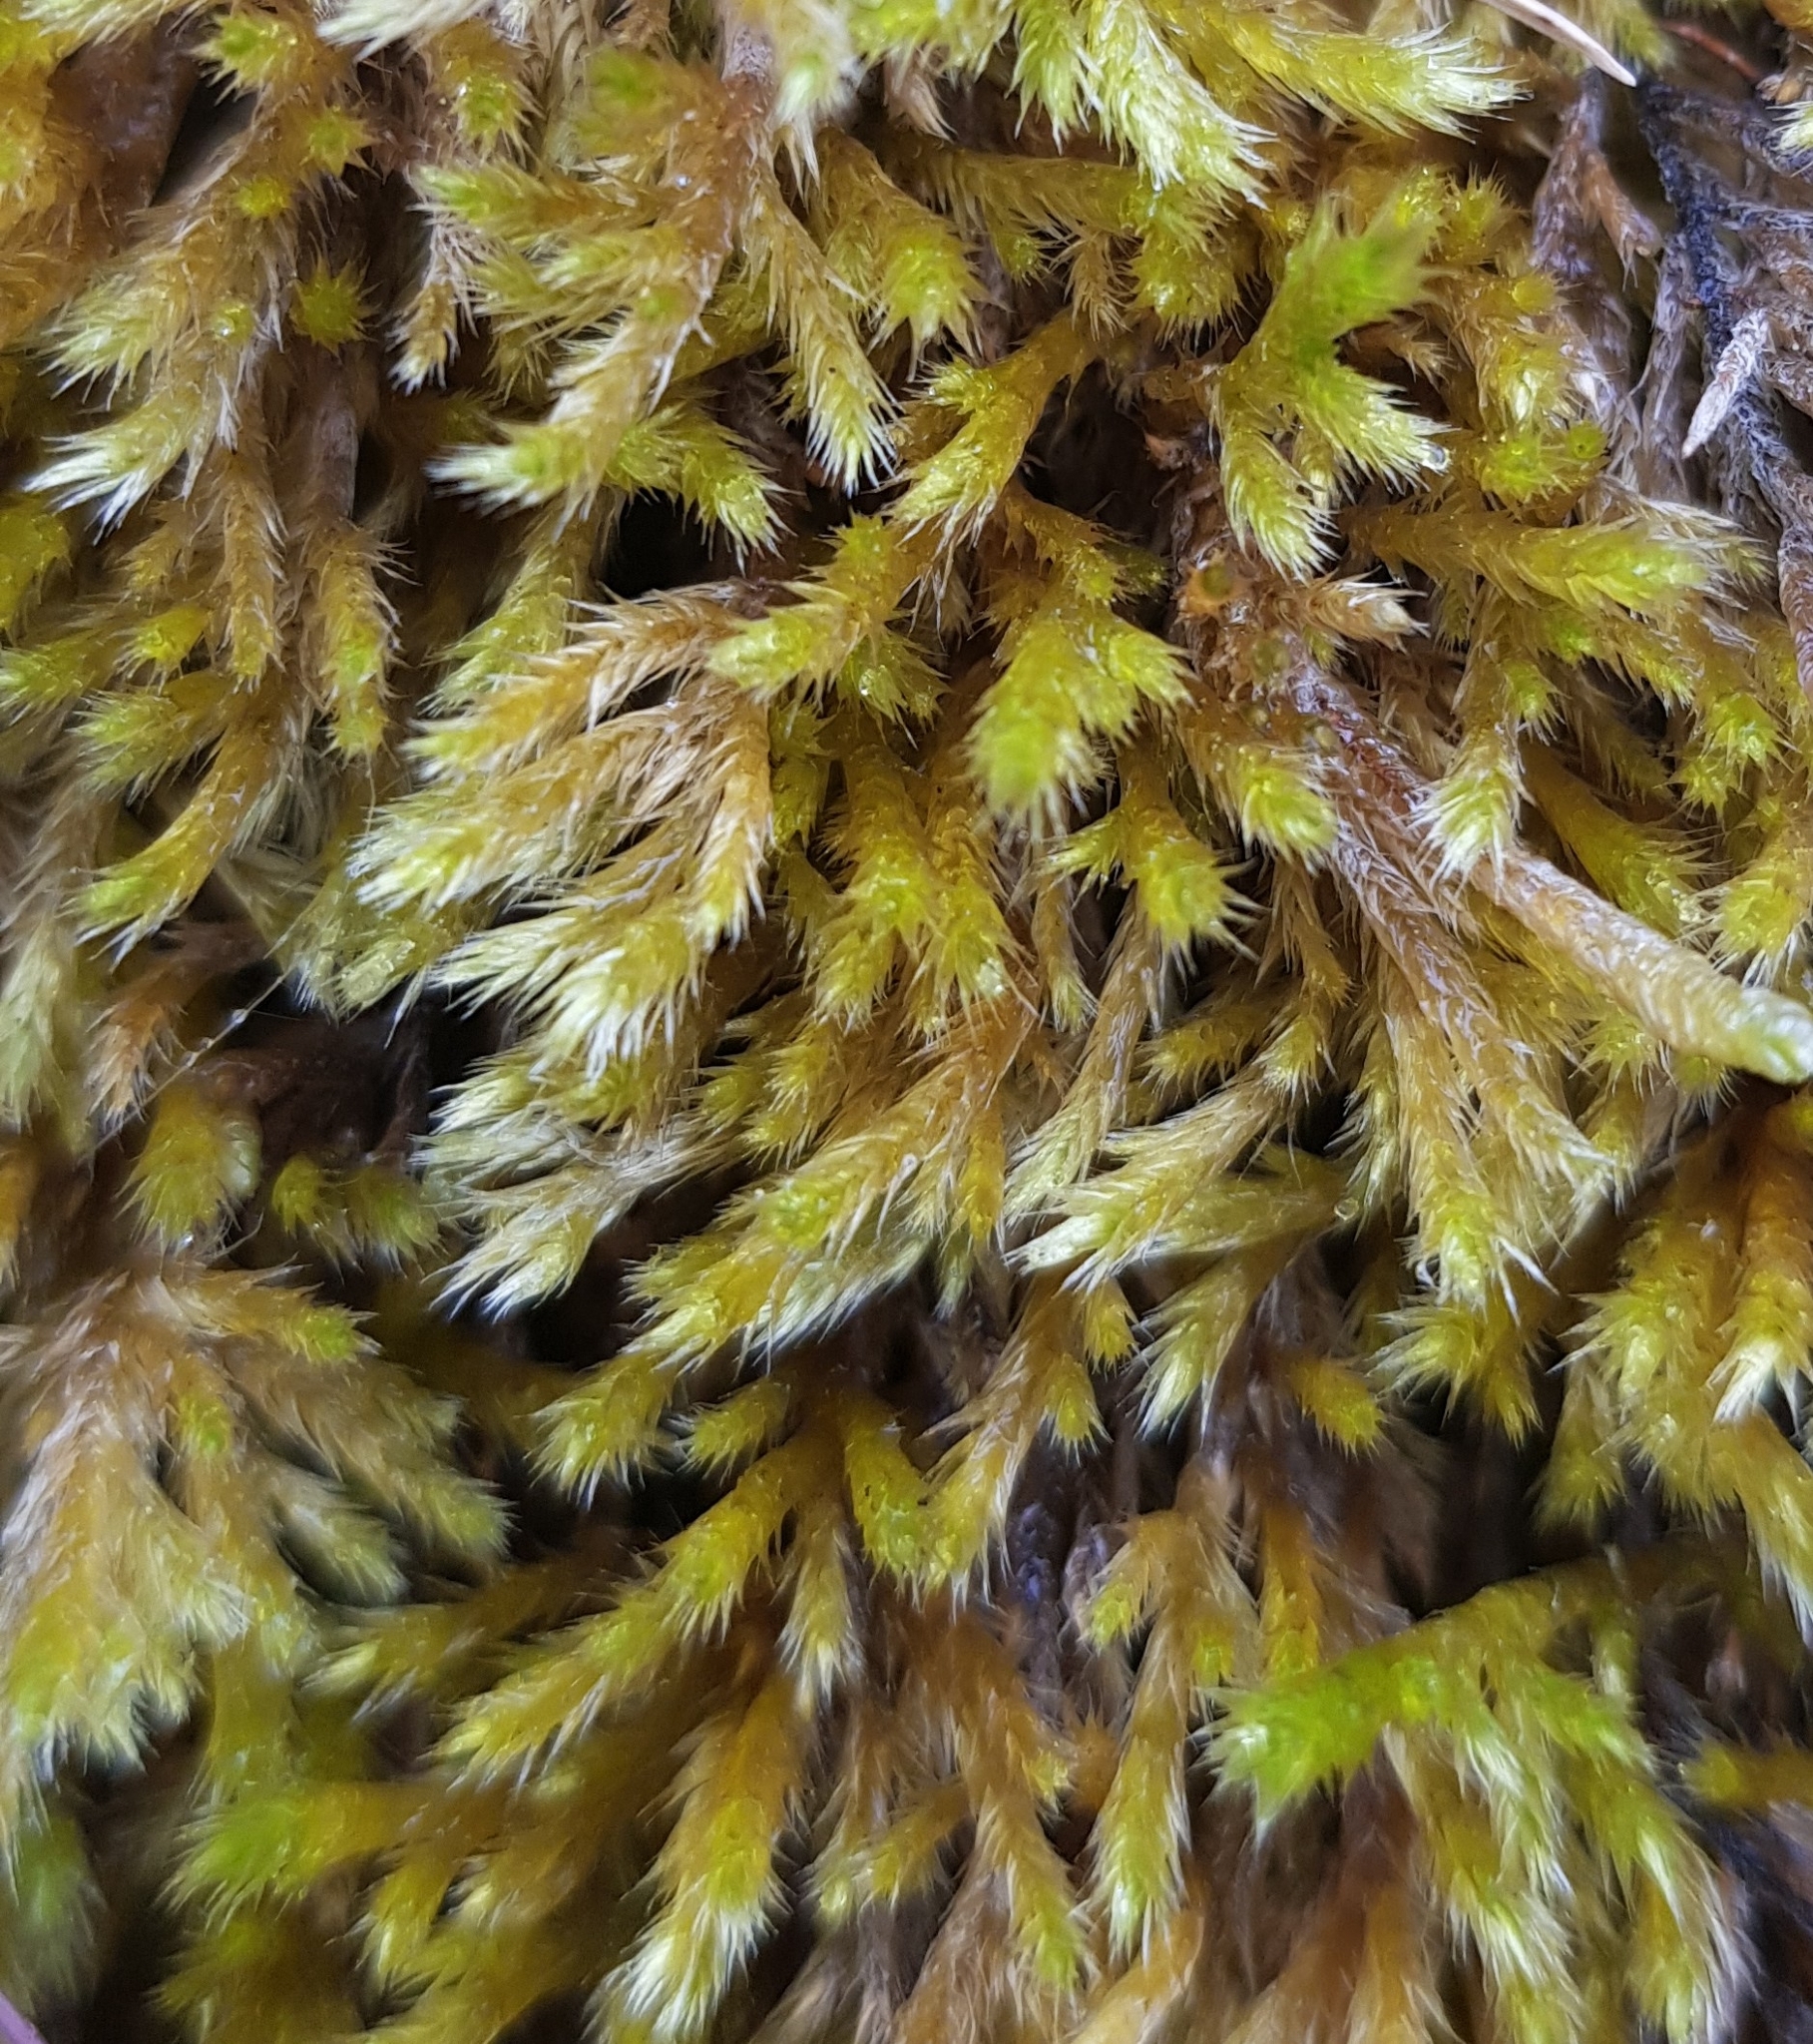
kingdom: Plantae
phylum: Bryophyta
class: Bryopsida
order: Hypnales
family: Brachytheciaceae
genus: Homalothecium
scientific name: Homalothecium lutescens
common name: Yellow feather-moss
